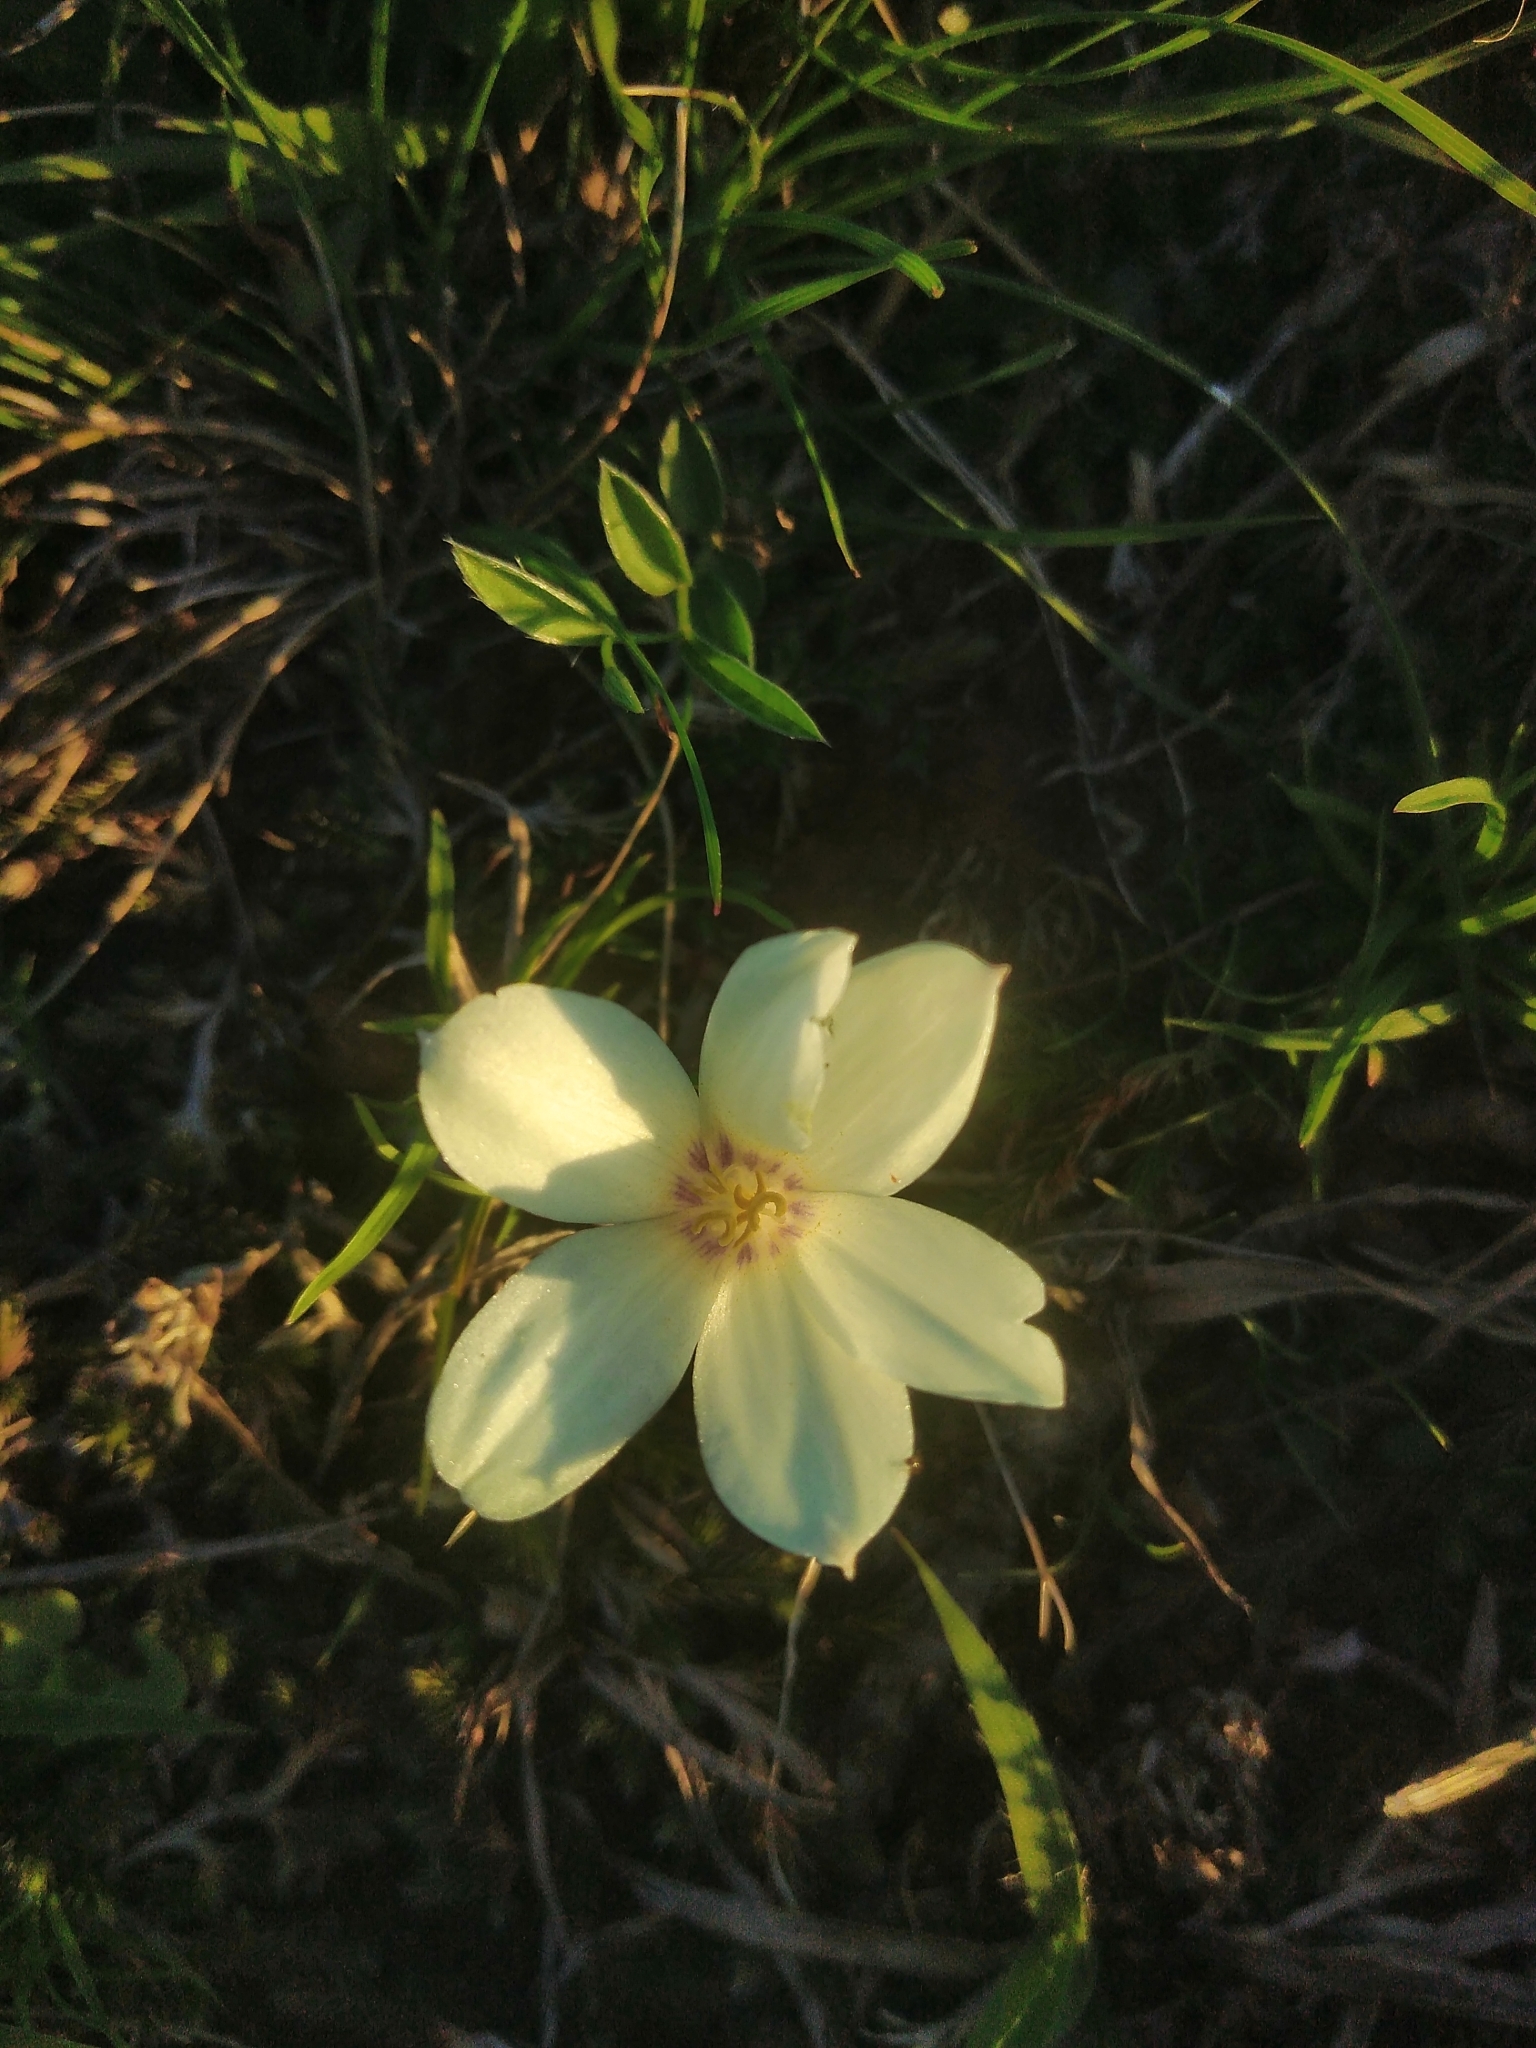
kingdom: Plantae
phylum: Tracheophyta
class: Liliopsida
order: Asparagales
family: Amaryllidaceae
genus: Zephyranthes
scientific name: Zephyranthes americana
